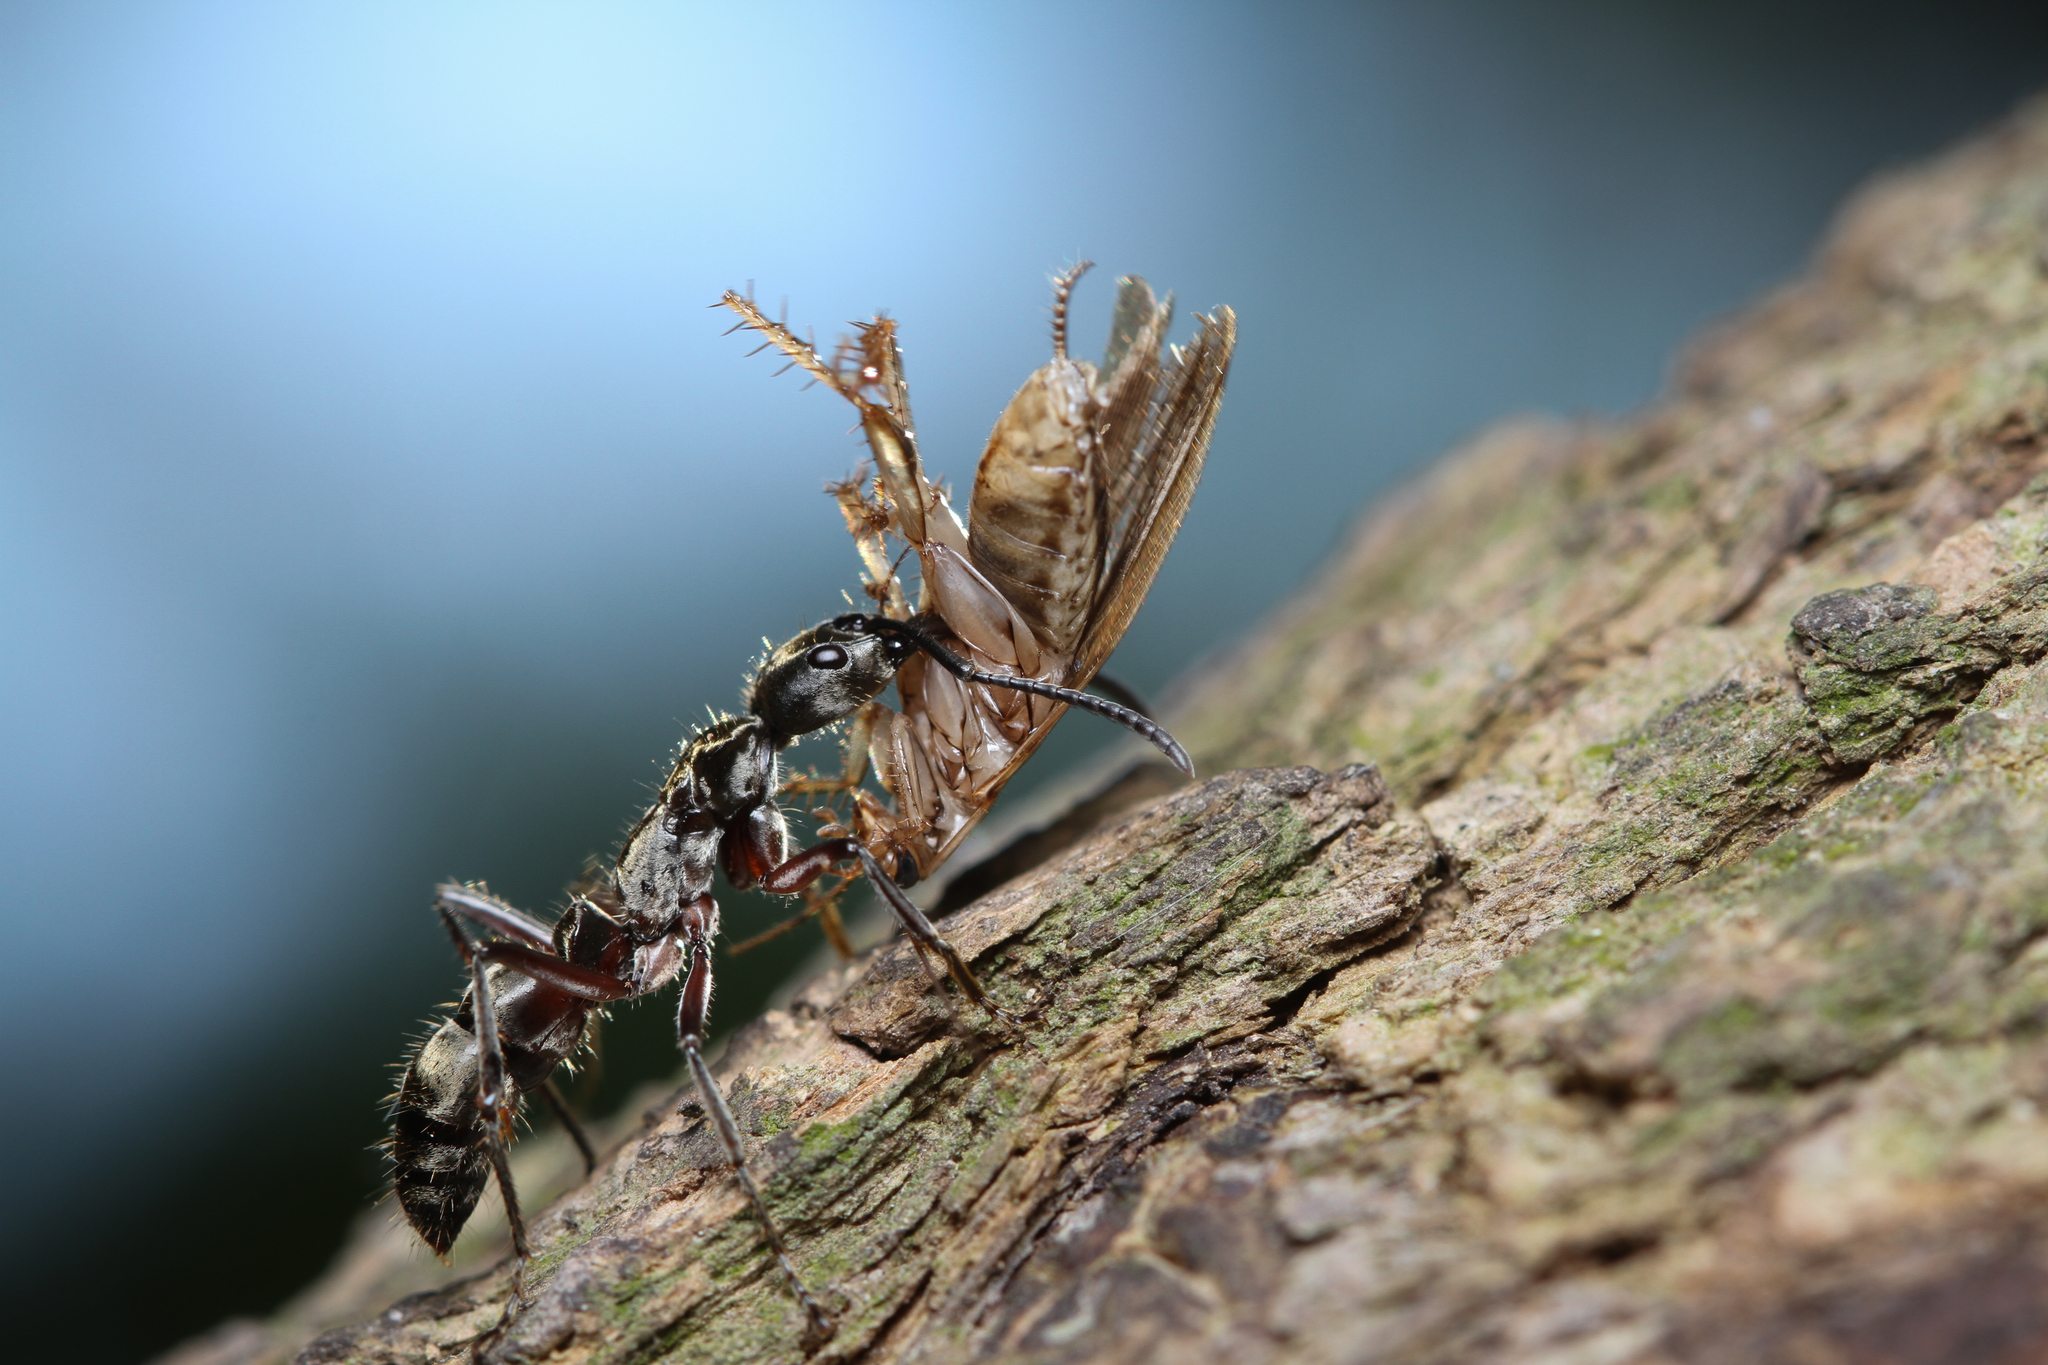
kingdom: Animalia
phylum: Arthropoda
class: Insecta
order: Hymenoptera
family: Formicidae
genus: Pachycondyla
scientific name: Pachycondyla villosa
